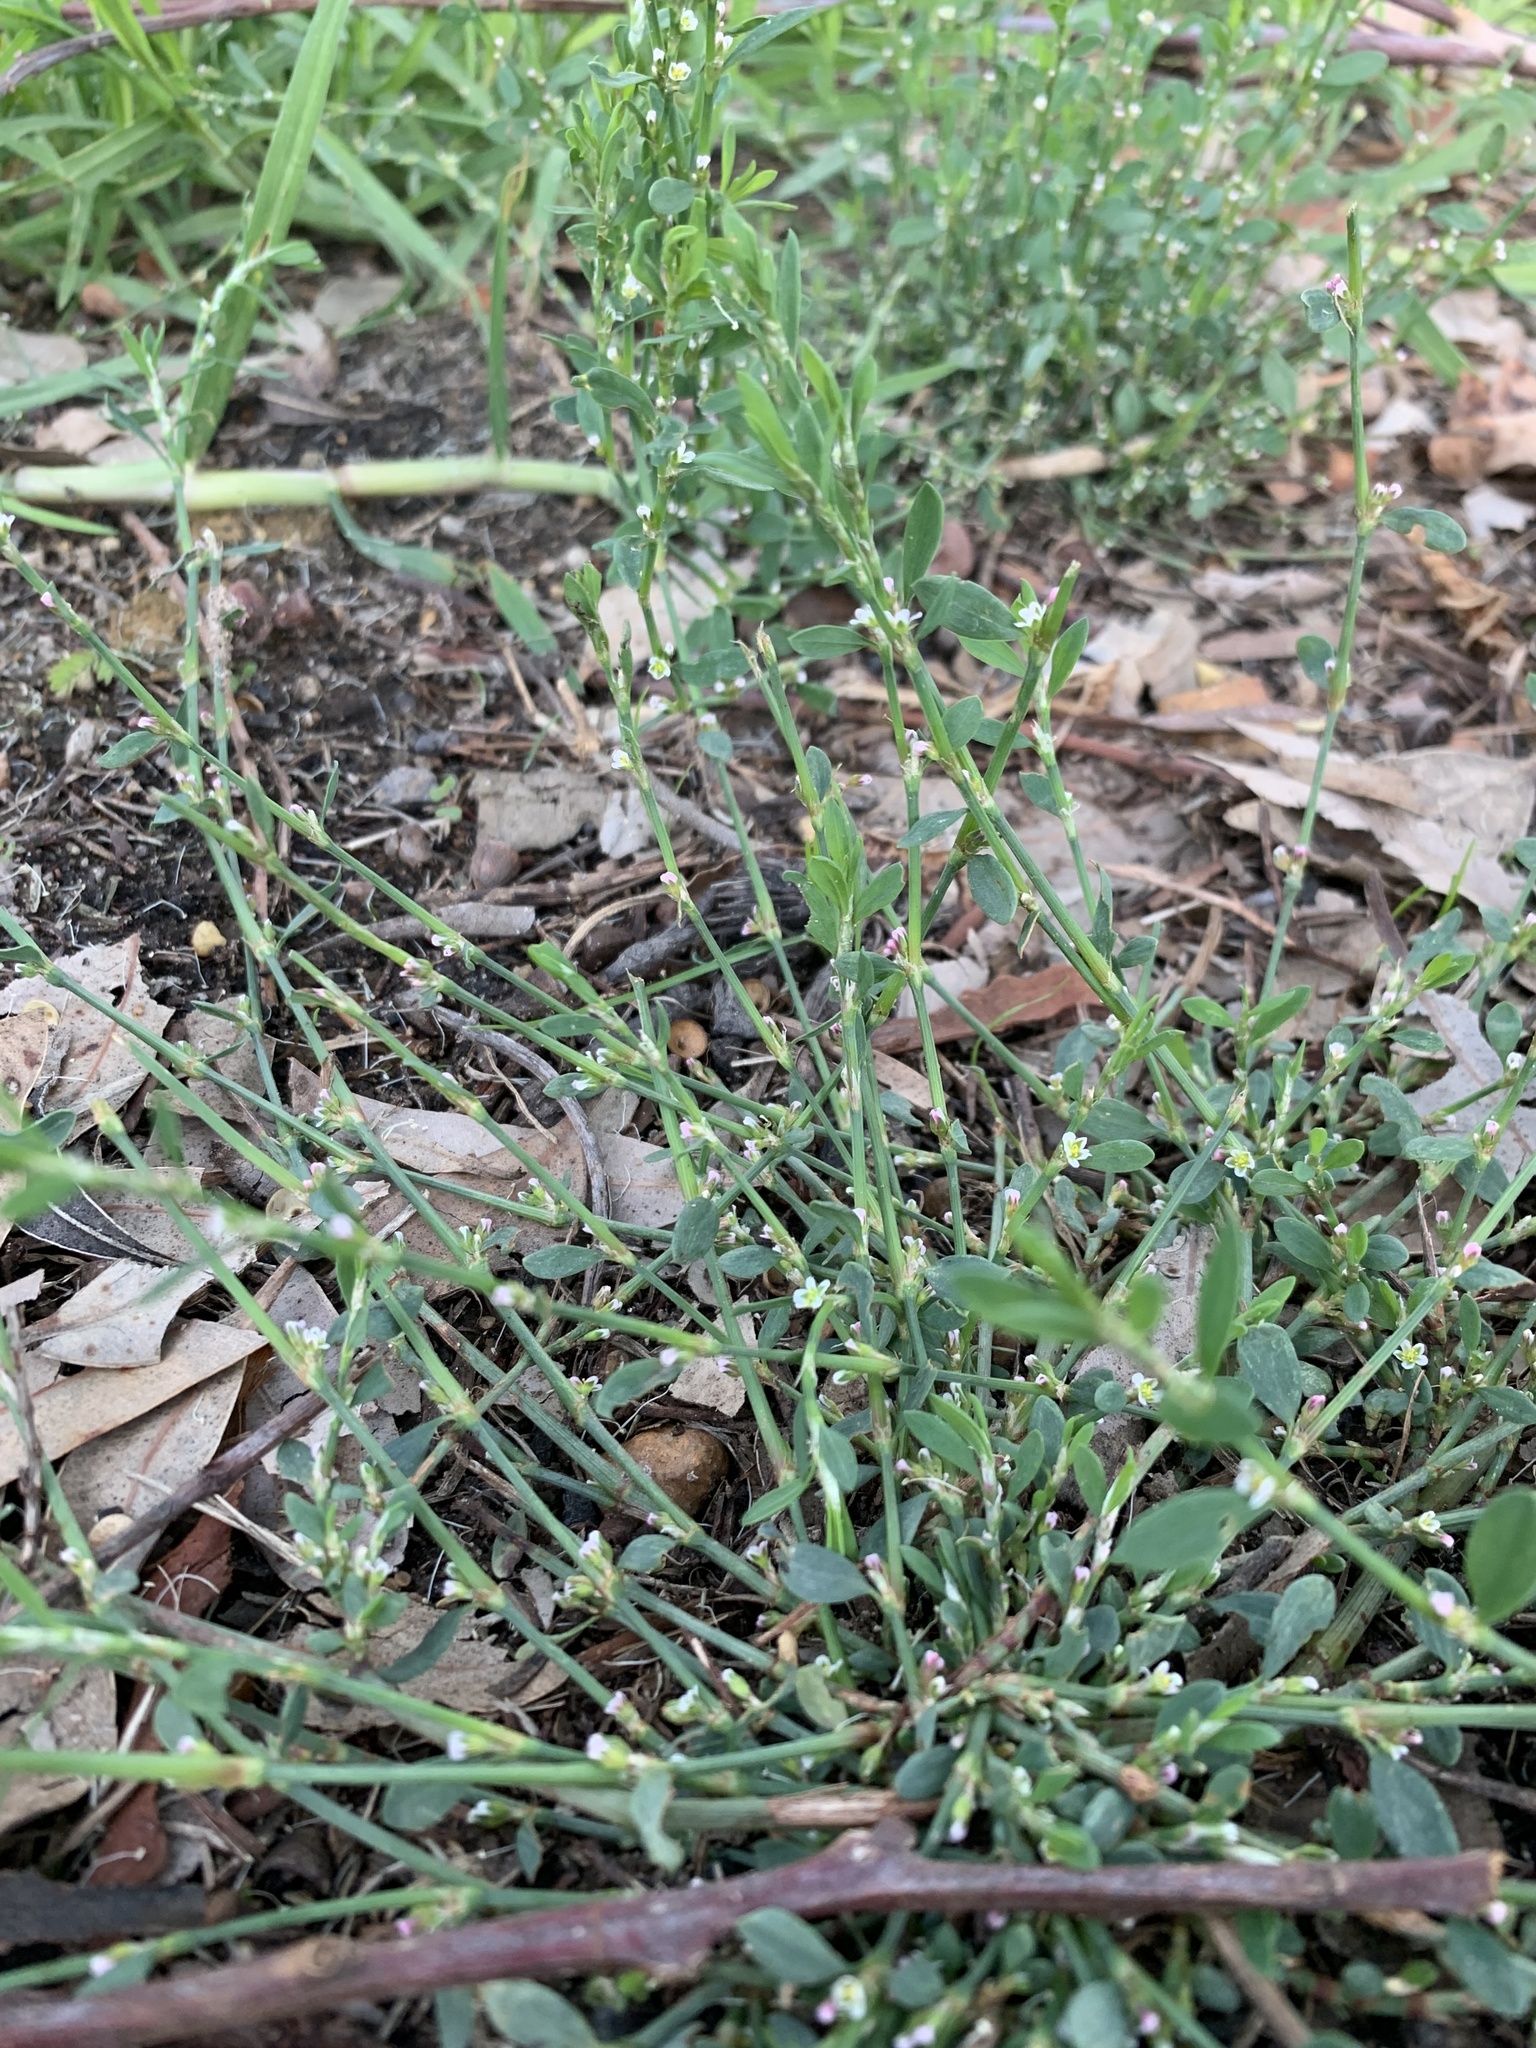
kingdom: Plantae
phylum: Tracheophyta
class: Magnoliopsida
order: Caryophyllales
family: Polygonaceae
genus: Polygonum
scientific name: Polygonum aviculare
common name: Prostrate knotweed
